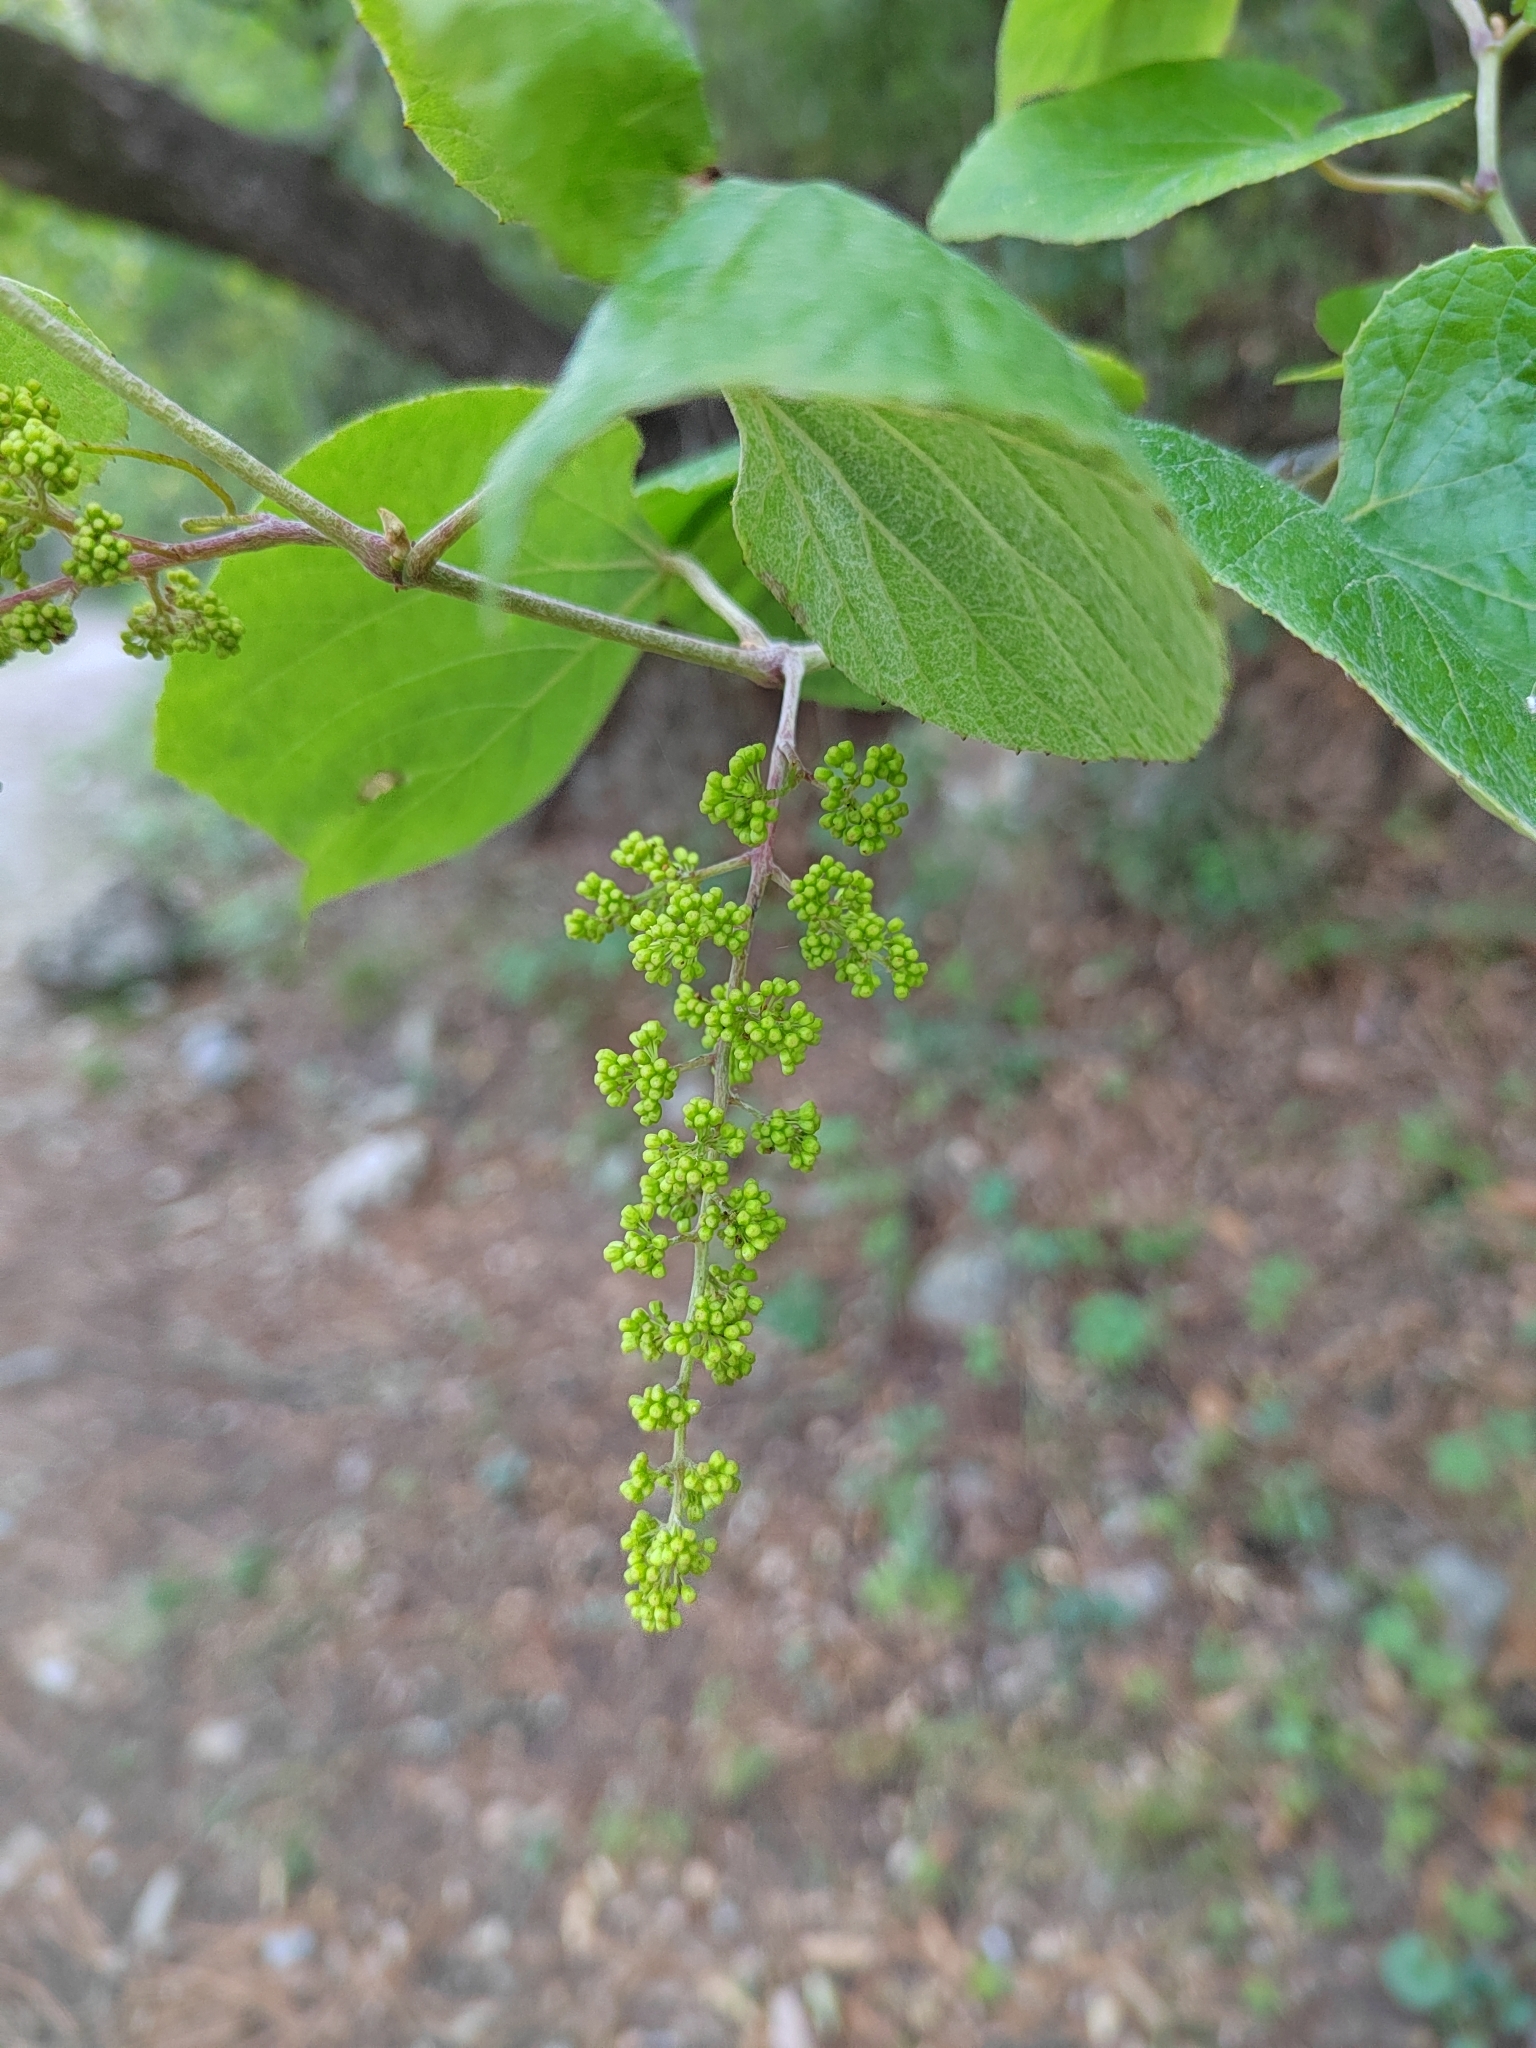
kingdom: Plantae
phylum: Tracheophyta
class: Magnoliopsida
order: Vitales
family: Vitaceae
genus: Vitis
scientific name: Vitis cinerea
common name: Ashy grape
